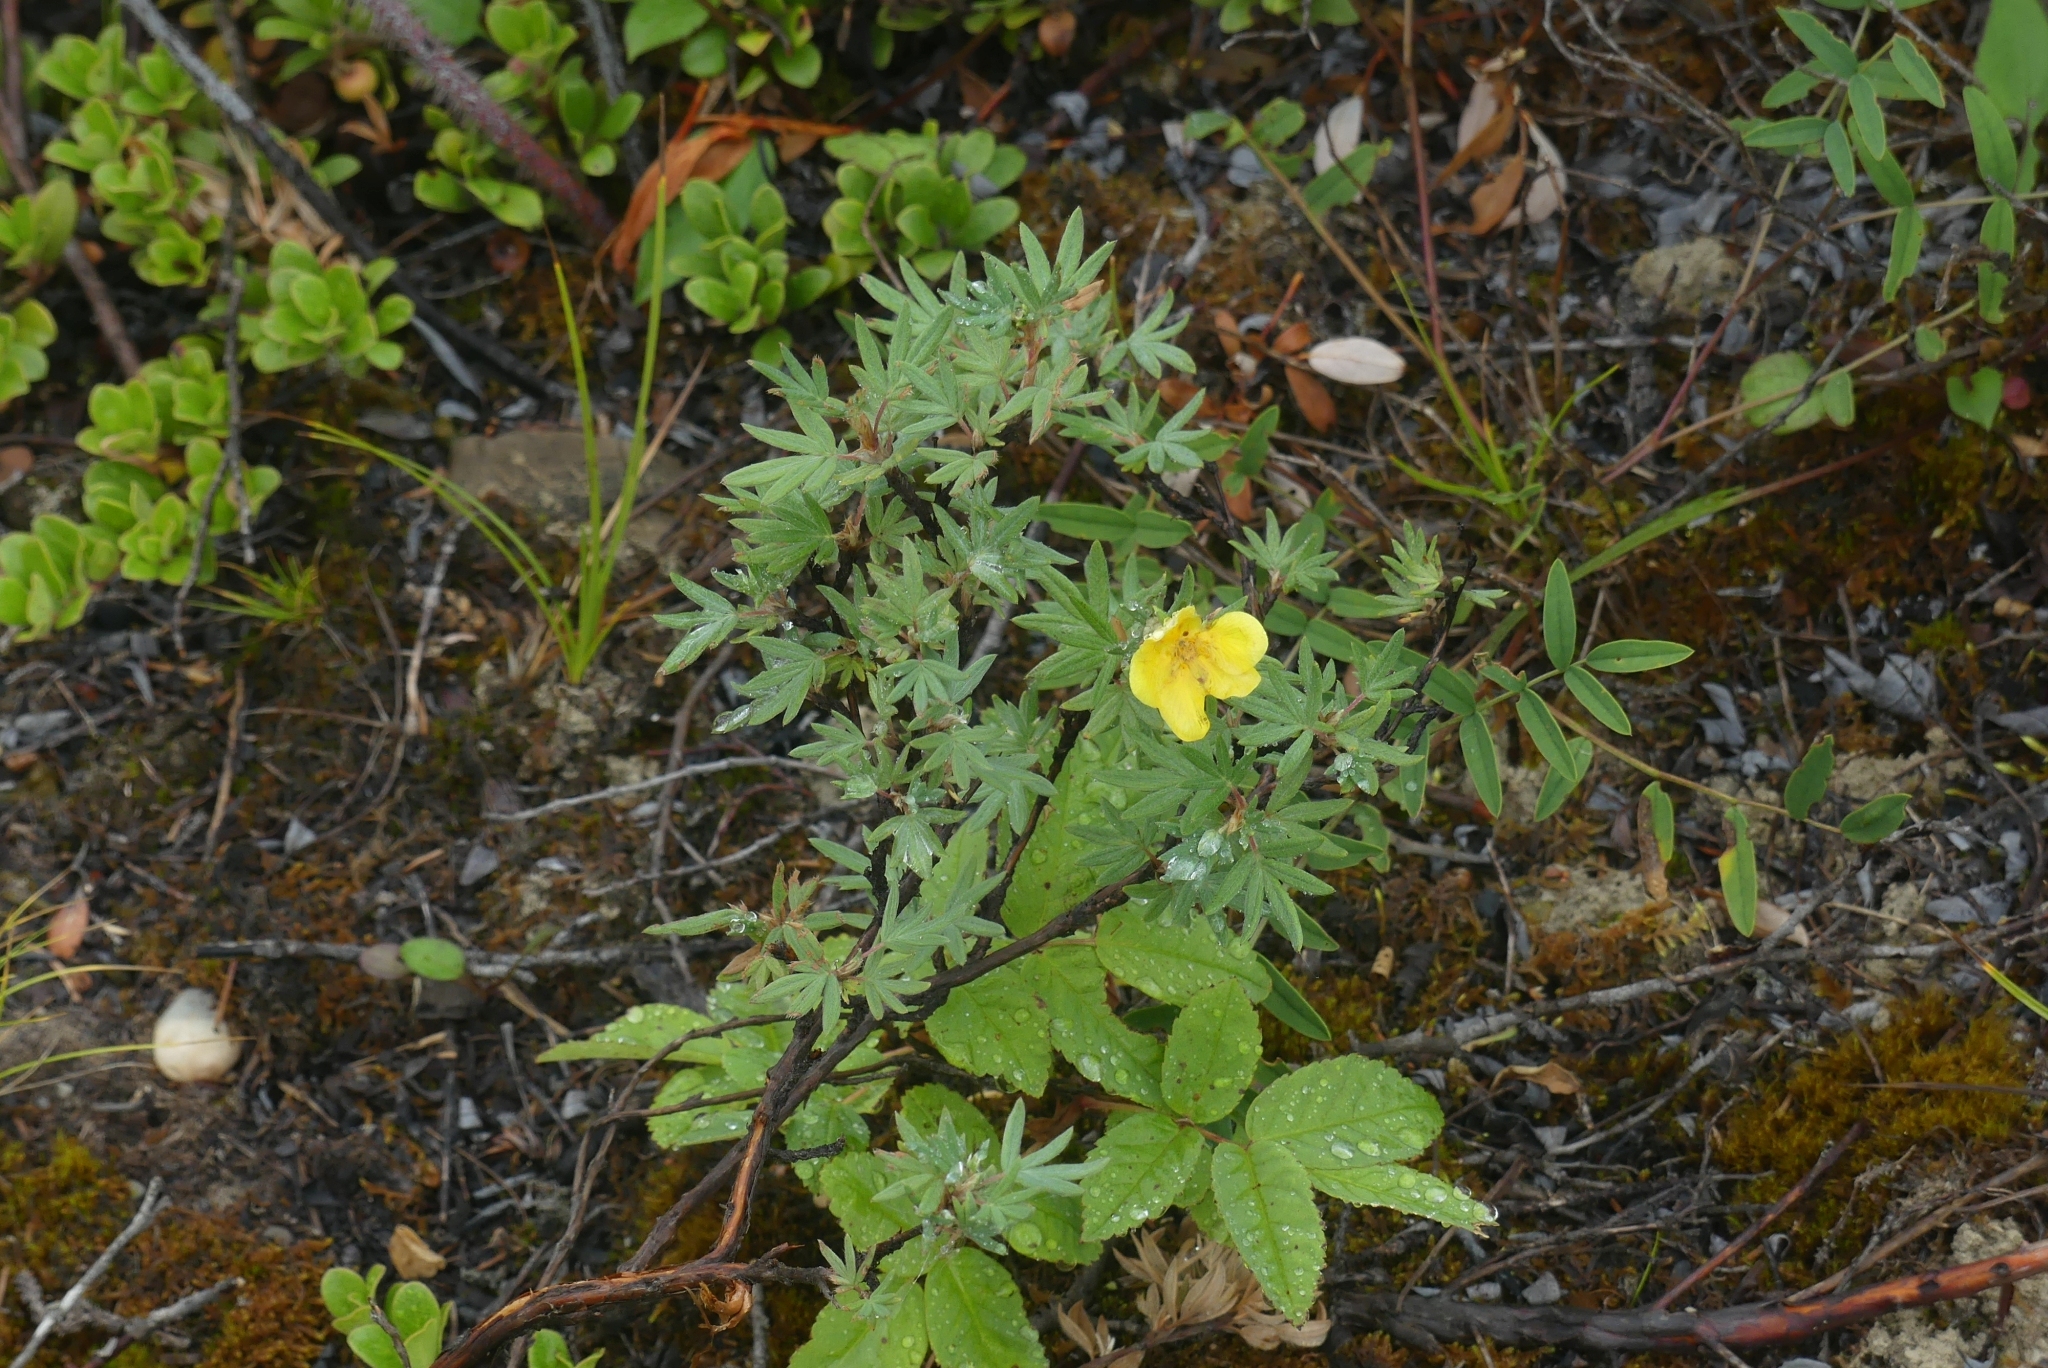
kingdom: Plantae
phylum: Tracheophyta
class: Magnoliopsida
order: Rosales
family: Rosaceae
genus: Dasiphora
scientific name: Dasiphora fruticosa
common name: Shrubby cinquefoil
